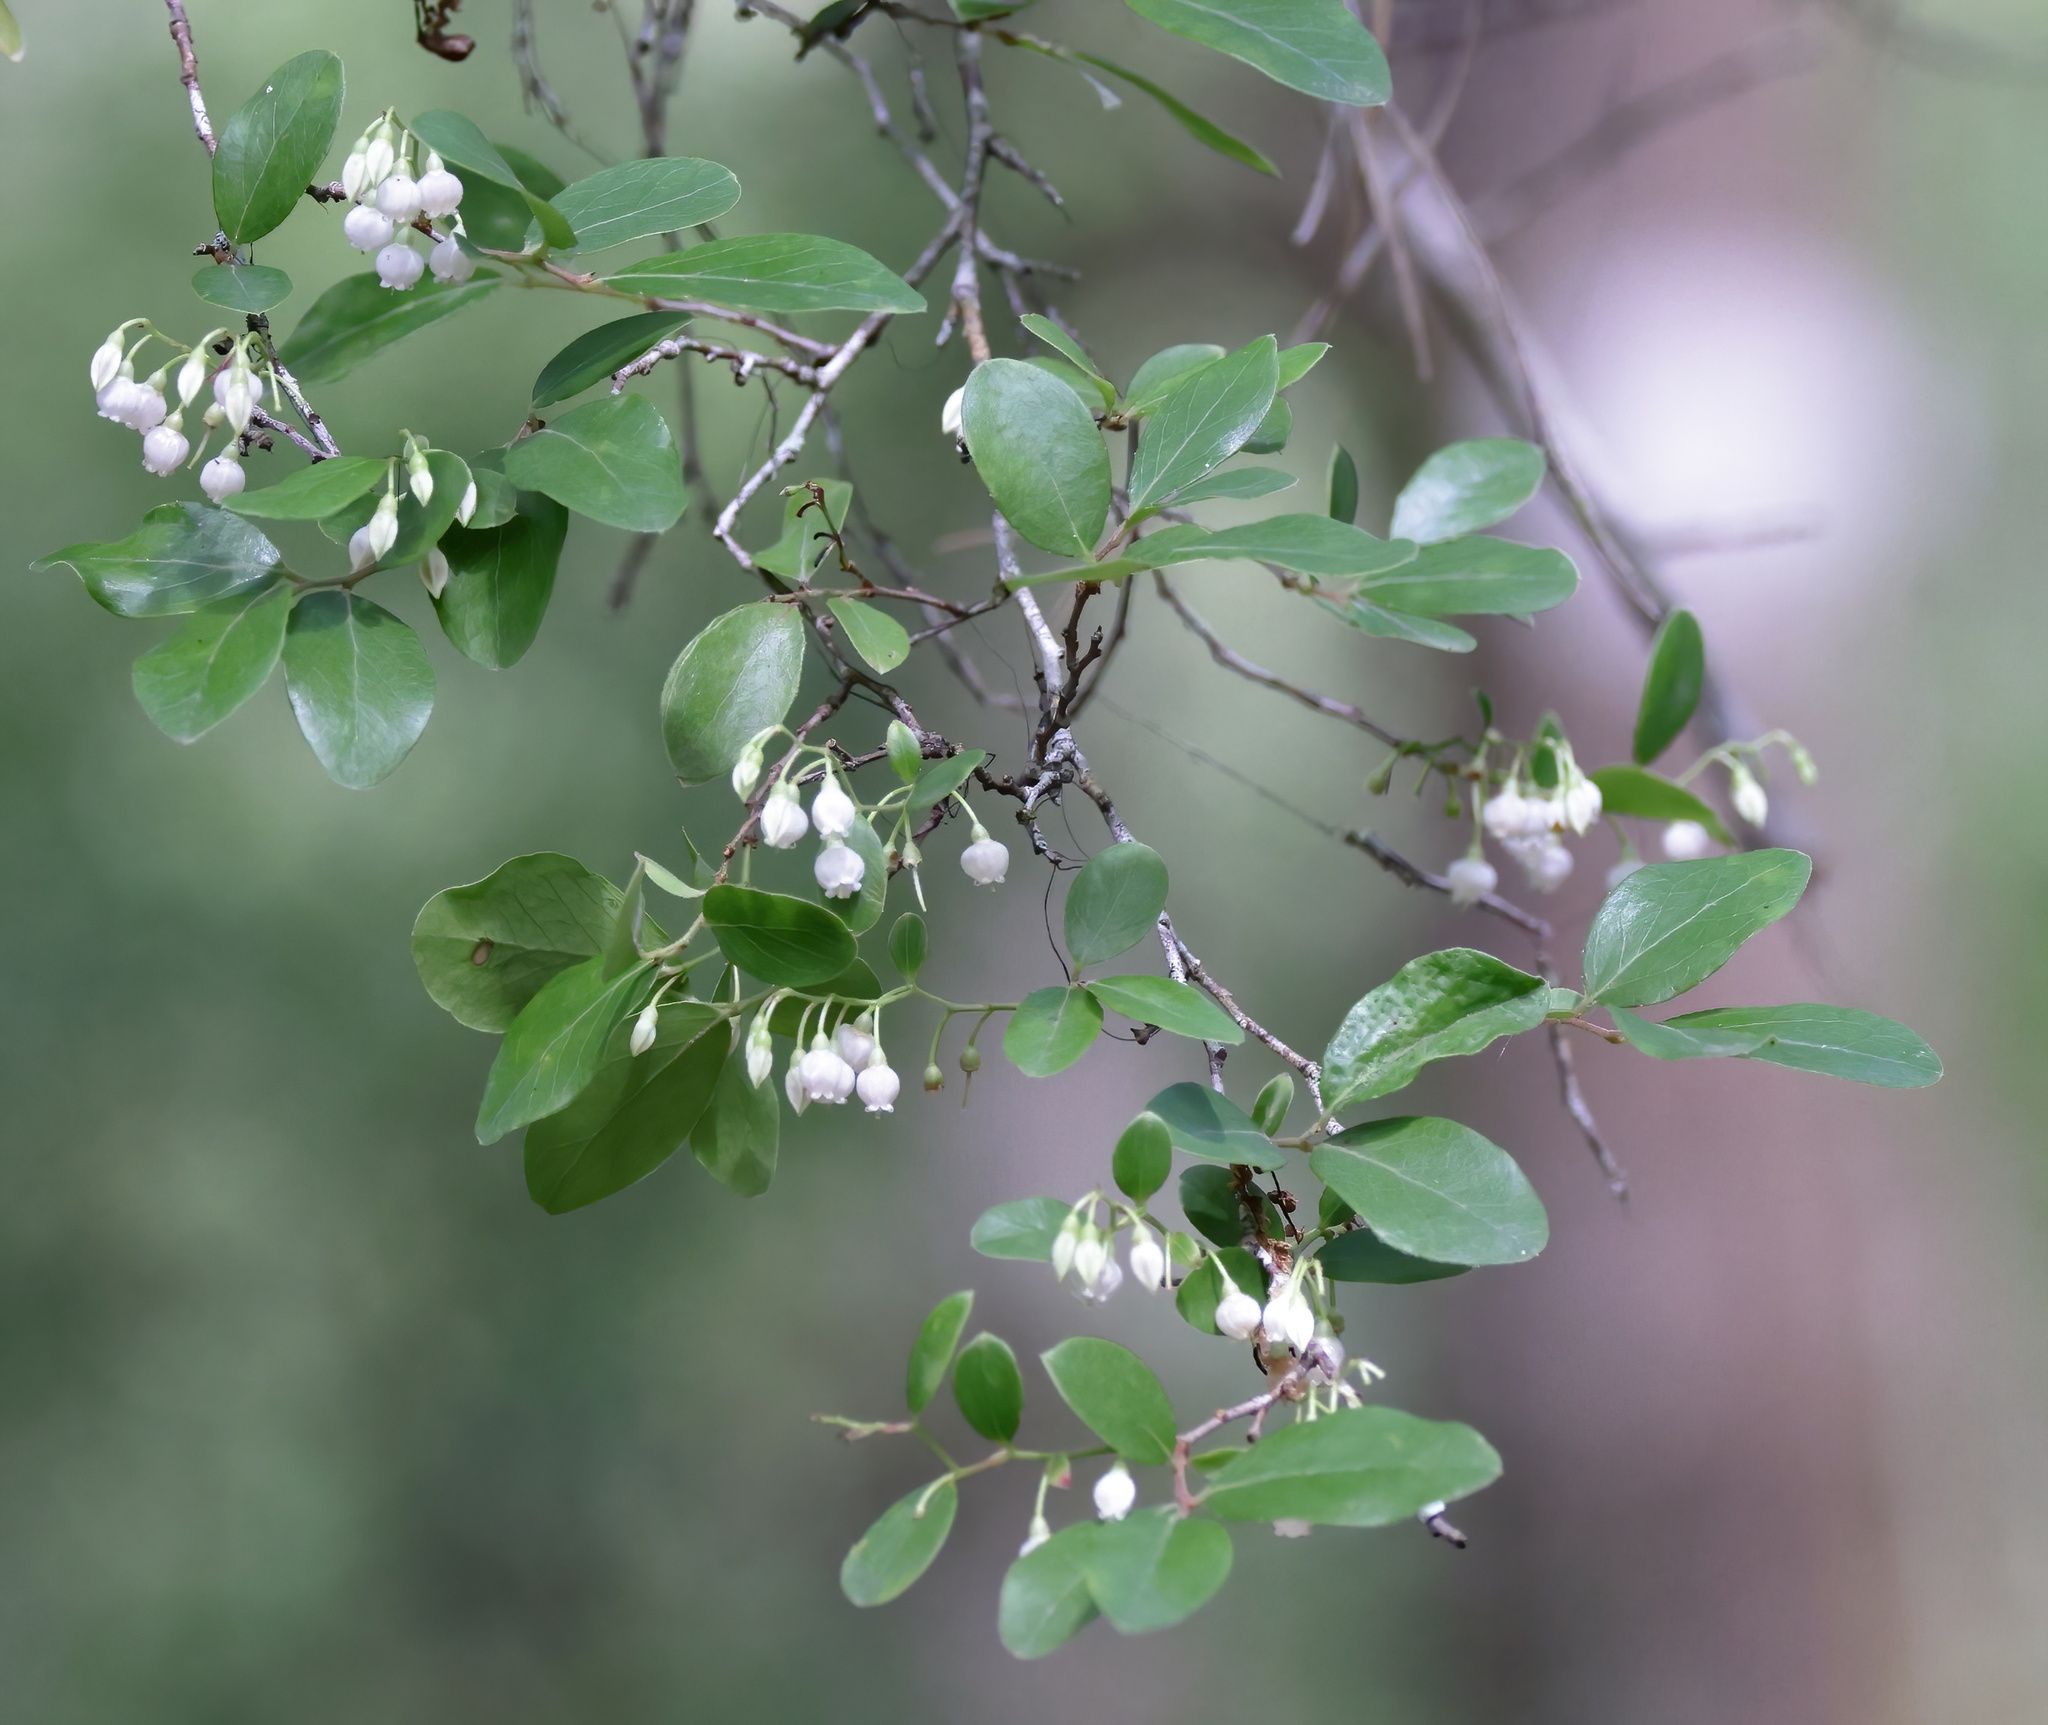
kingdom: Plantae
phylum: Tracheophyta
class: Magnoliopsida
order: Ericales
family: Ericaceae
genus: Vaccinium
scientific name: Vaccinium arboreum
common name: Farkleberry
